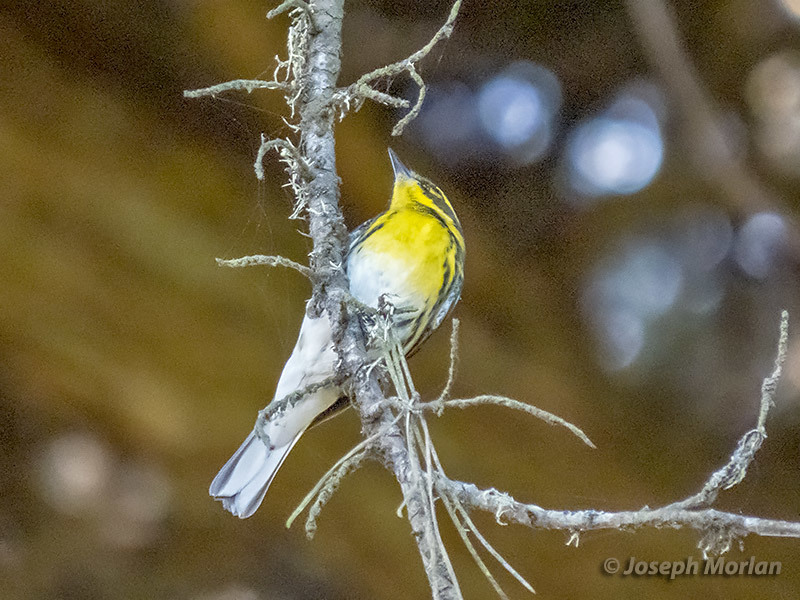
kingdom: Animalia
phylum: Chordata
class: Aves
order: Passeriformes
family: Parulidae
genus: Setophaga
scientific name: Setophaga townsendi
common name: Townsend's warbler
